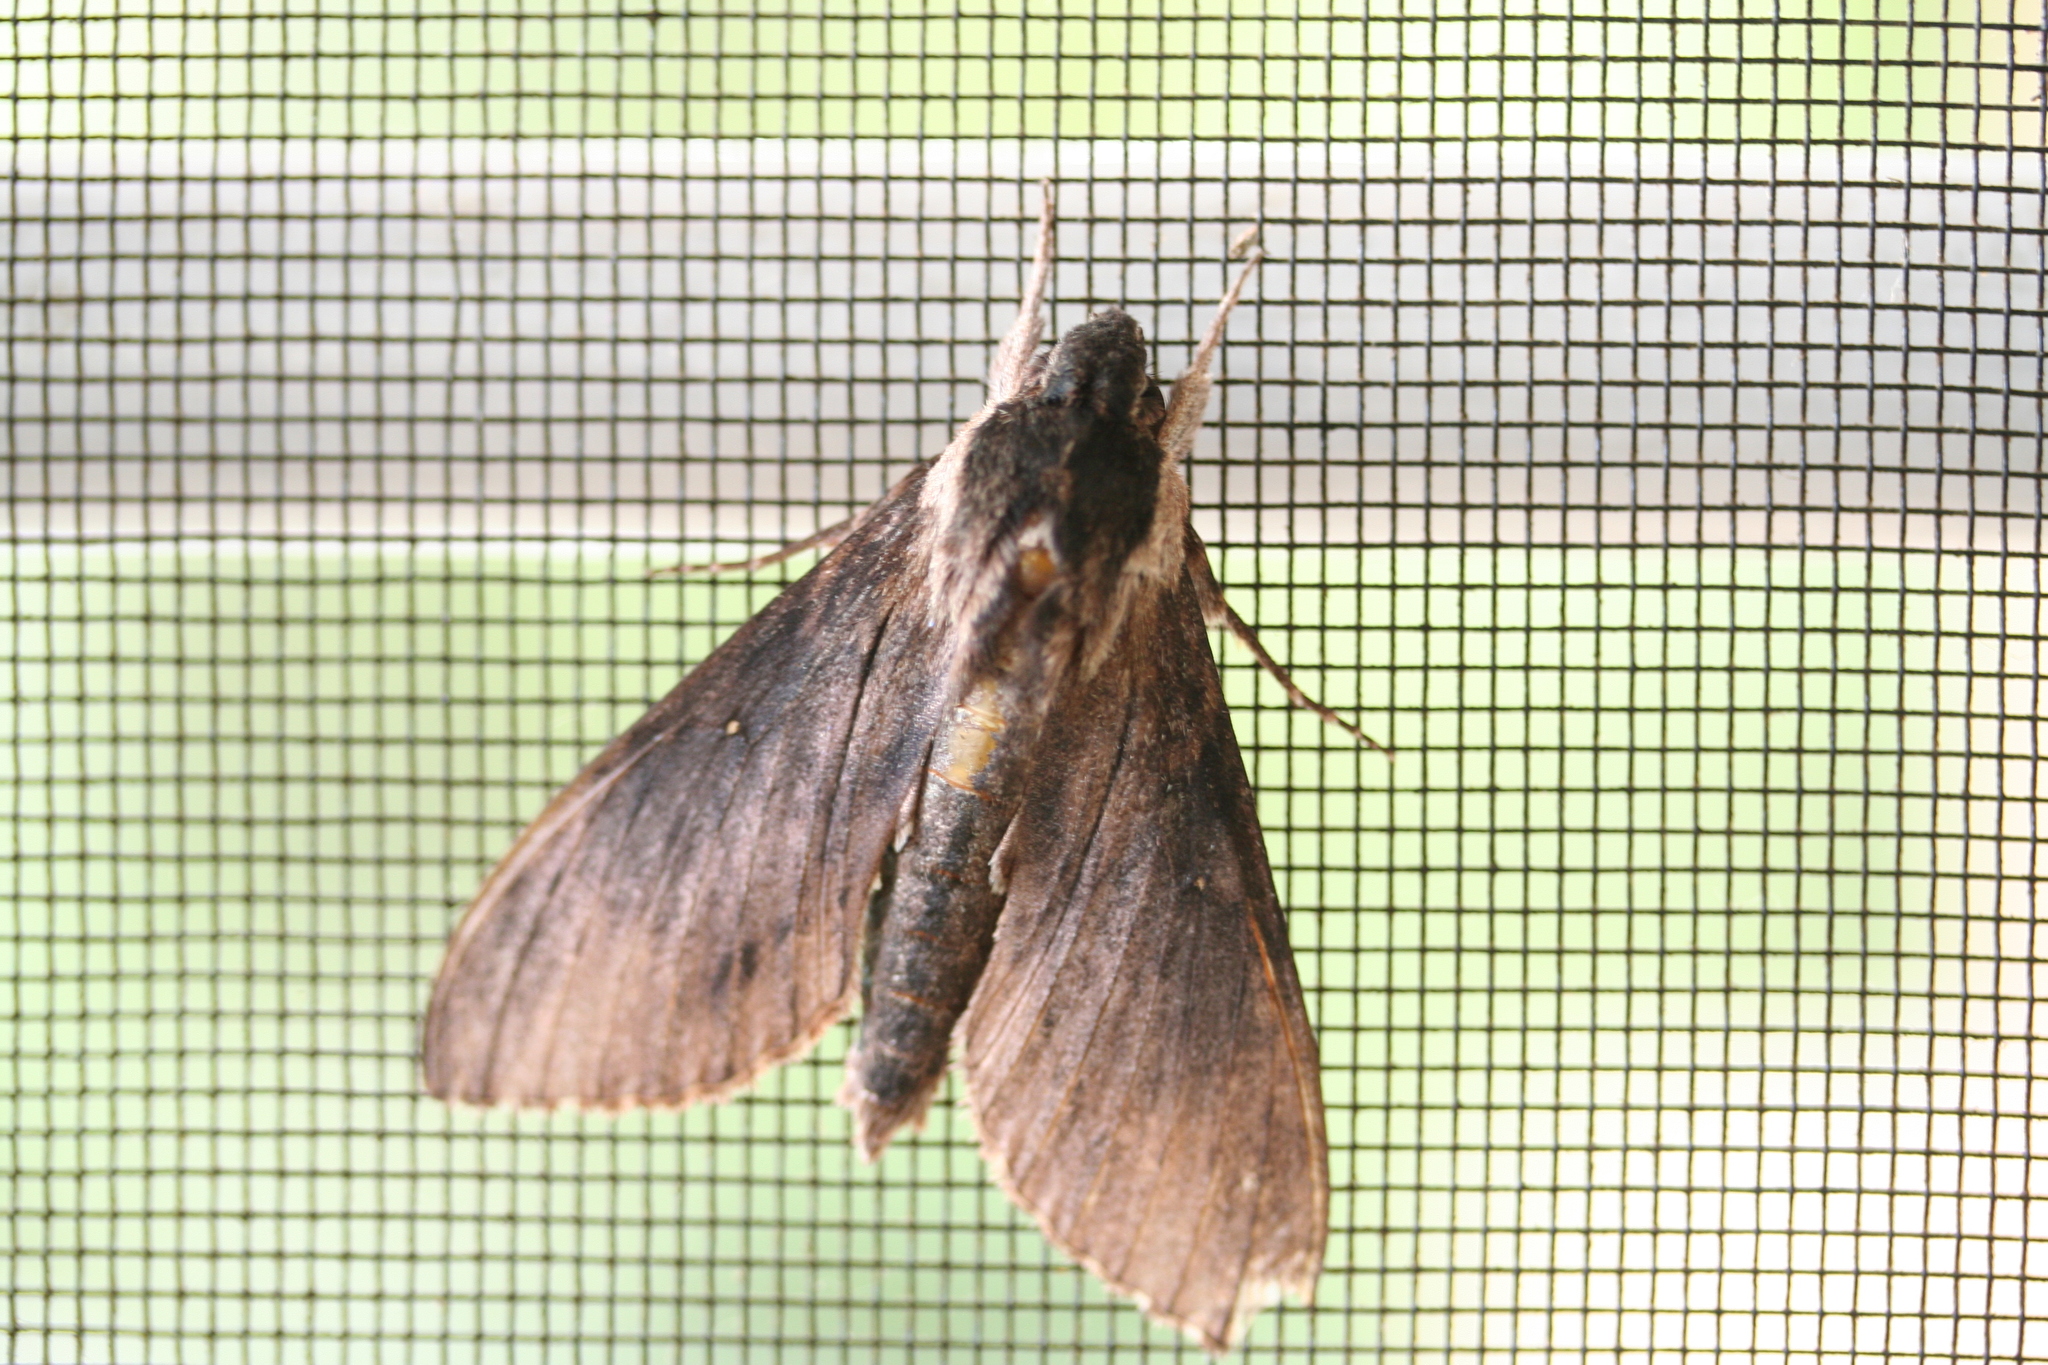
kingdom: Animalia
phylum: Arthropoda
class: Insecta
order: Lepidoptera
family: Sphingidae
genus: Lomocyma
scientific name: Lomocyma oegrapha
